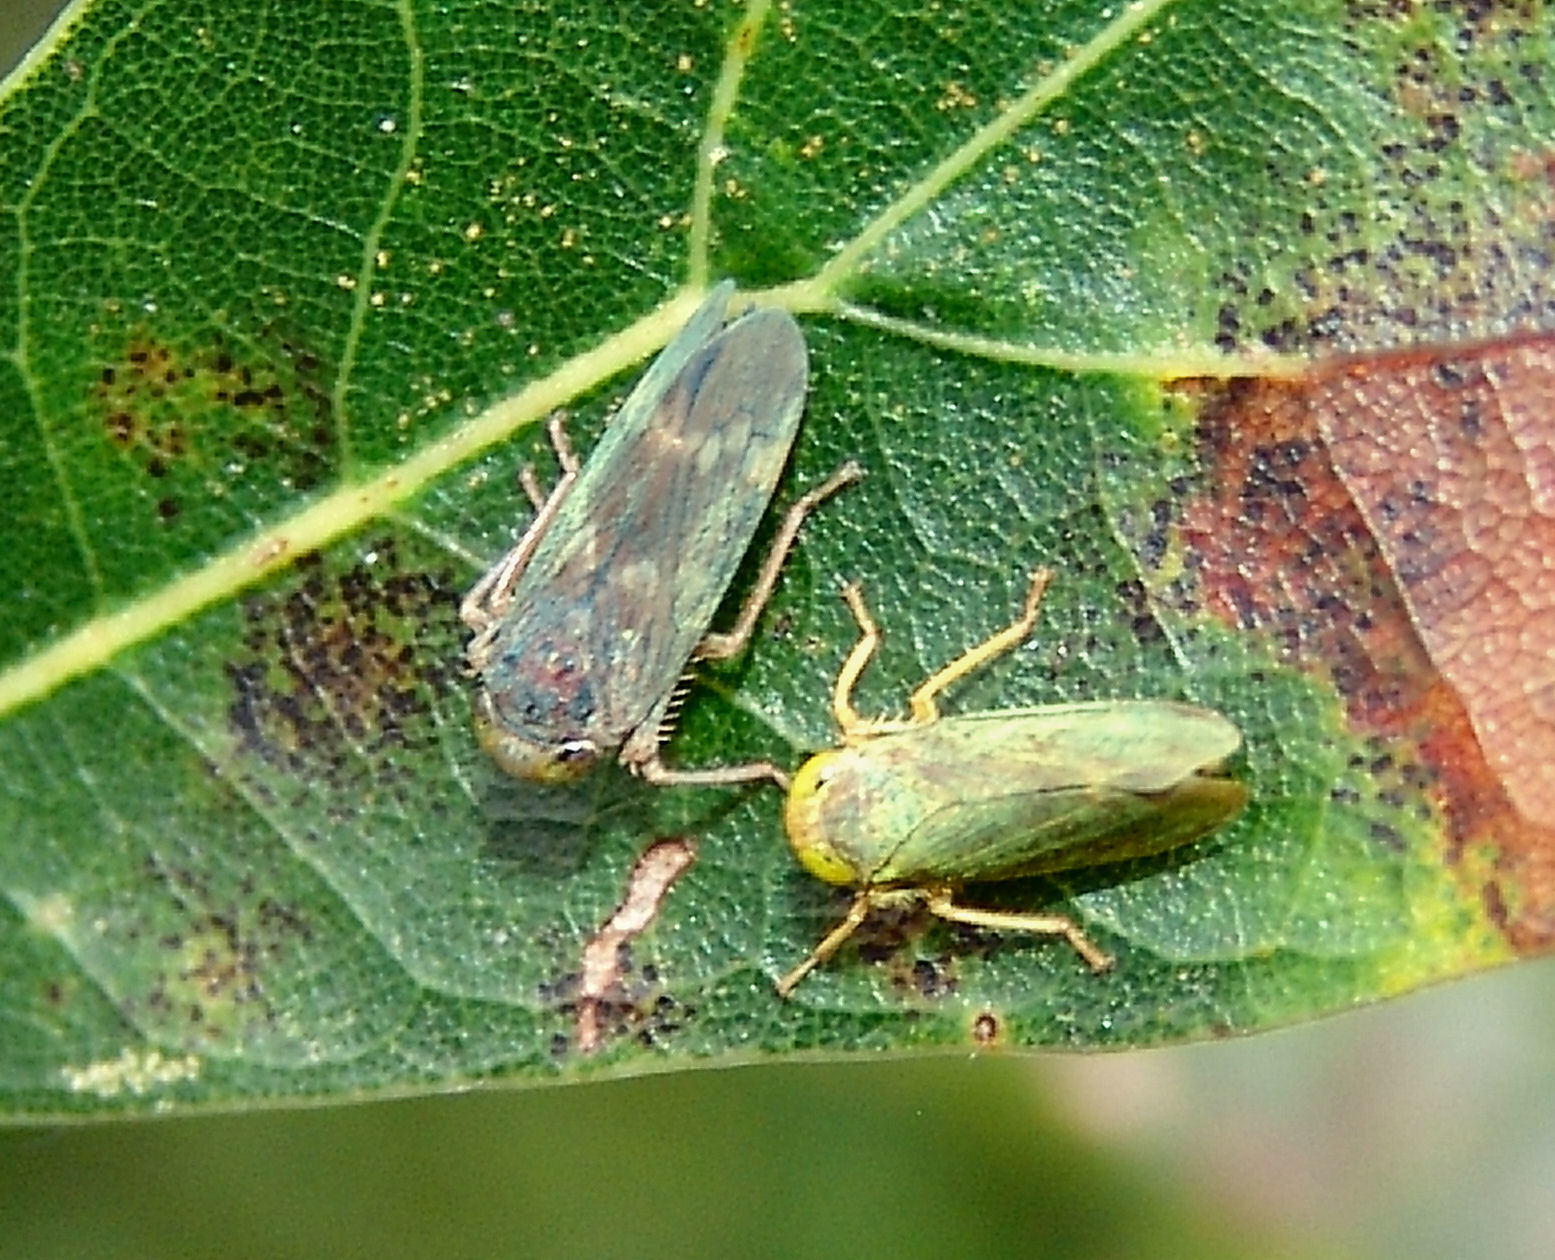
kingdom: Animalia
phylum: Arthropoda
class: Insecta
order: Hemiptera
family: Cicadellidae
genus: Jikradia
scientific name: Jikradia olitoria
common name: Coppery leafhopper
